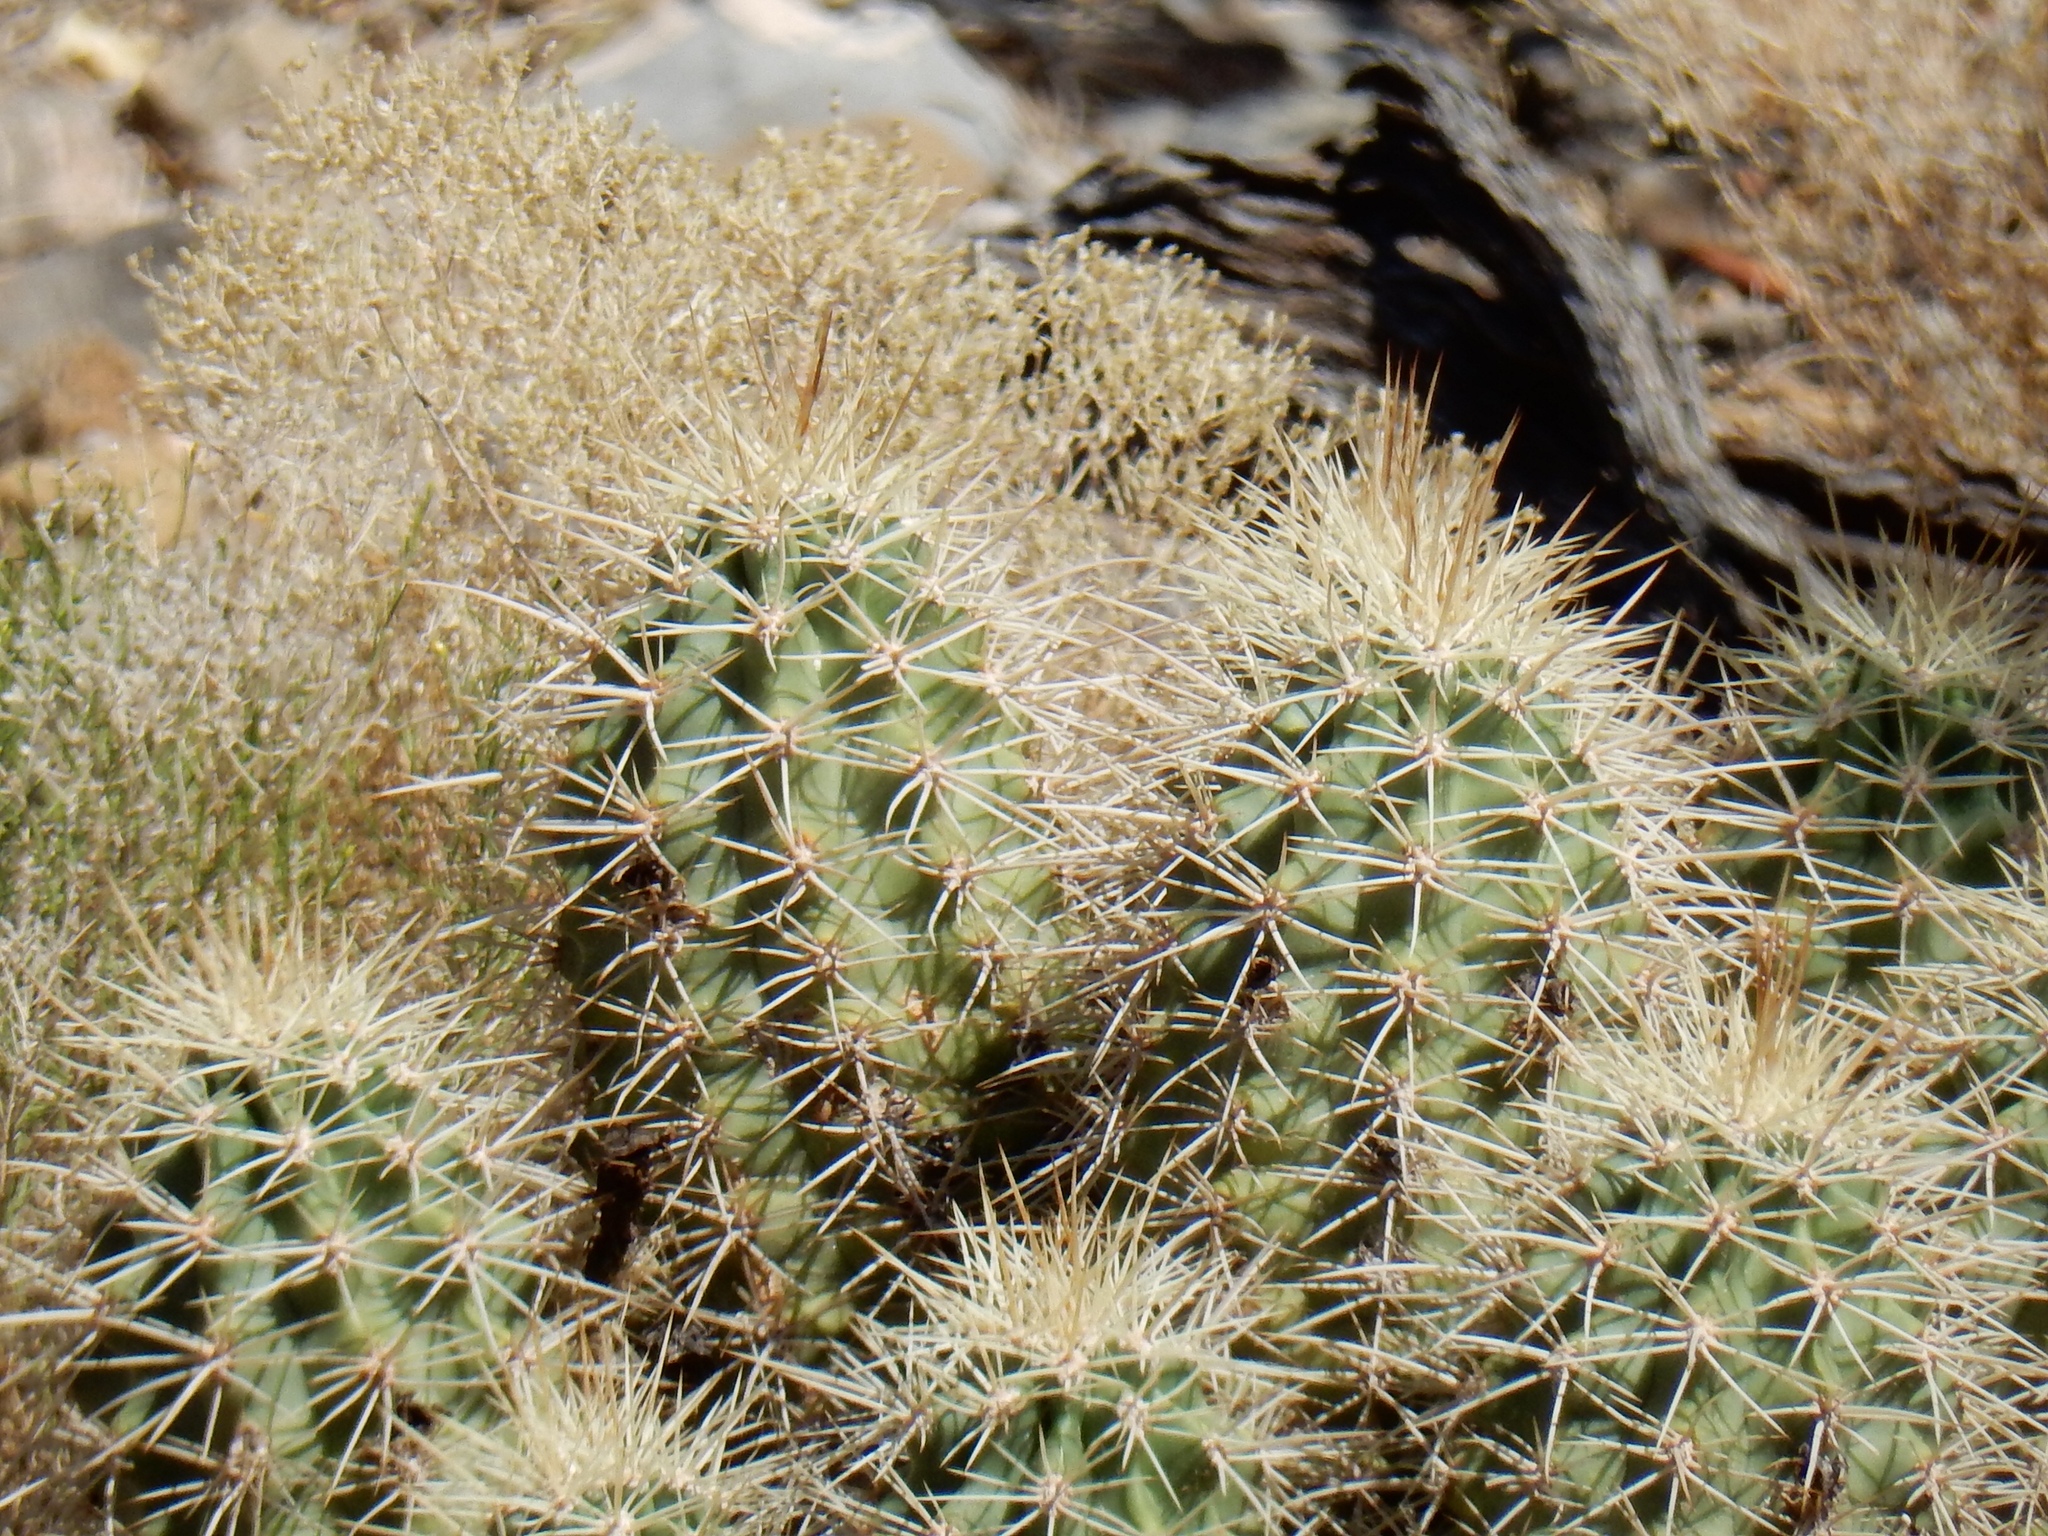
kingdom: Plantae
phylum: Tracheophyta
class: Magnoliopsida
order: Caryophyllales
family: Cactaceae
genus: Echinocereus
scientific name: Echinocereus coccineus
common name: Scarlet hedgehog cactus
